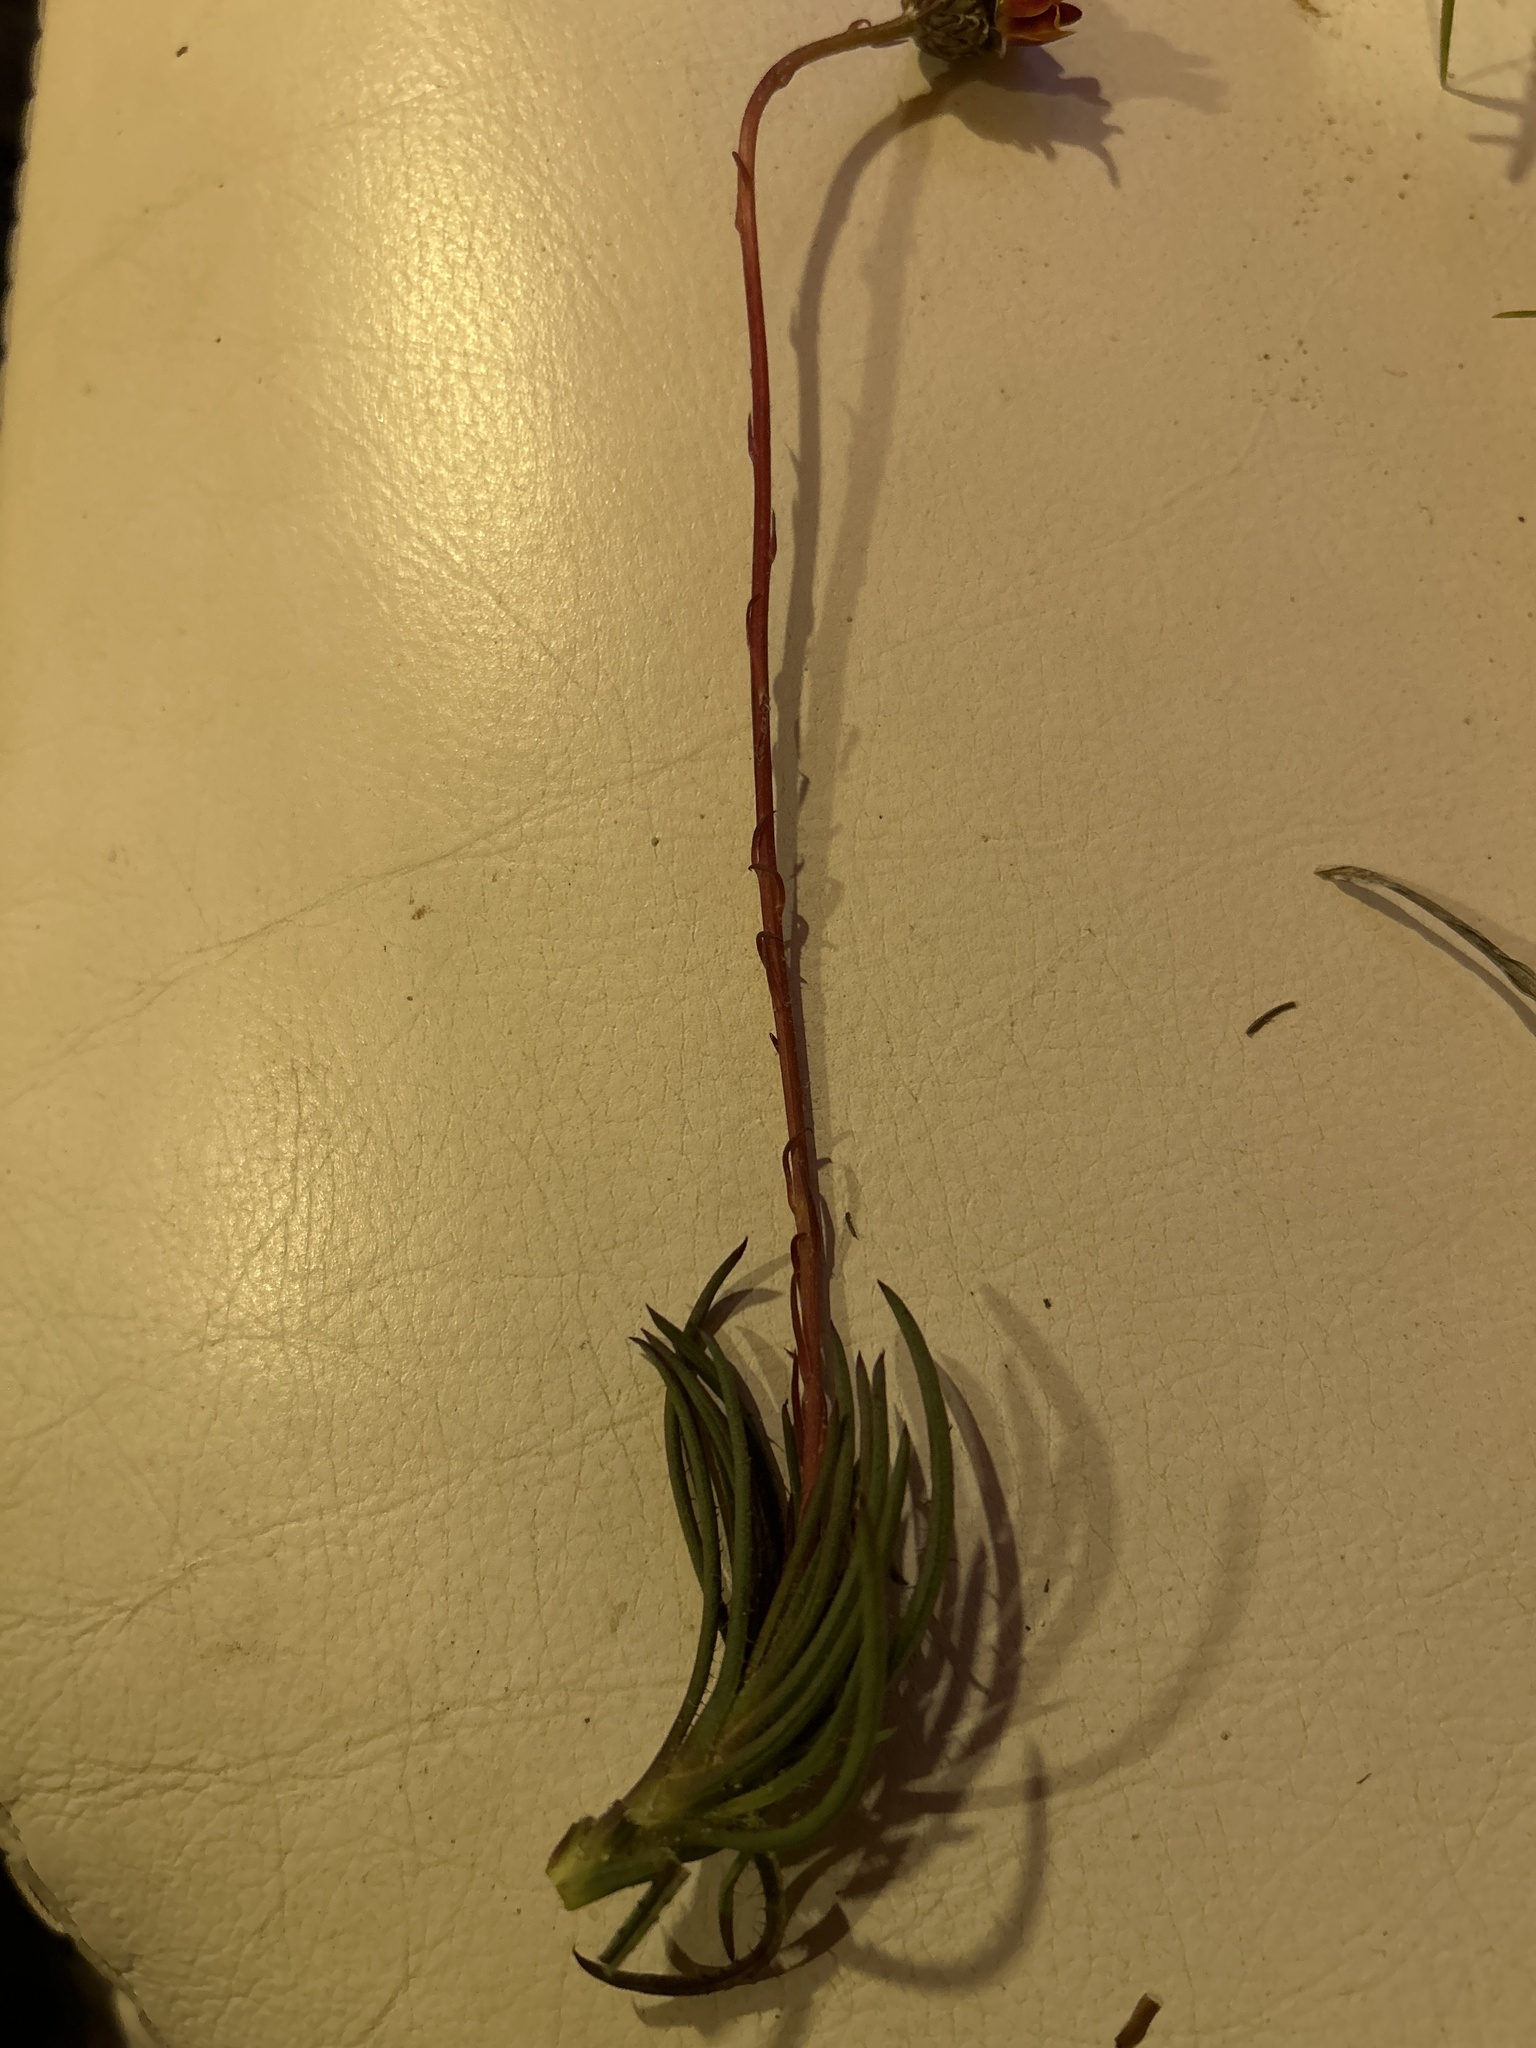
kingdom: Plantae
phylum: Tracheophyta
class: Magnoliopsida
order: Asterales
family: Asteraceae
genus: Ursinia
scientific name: Ursinia tenuifolia
